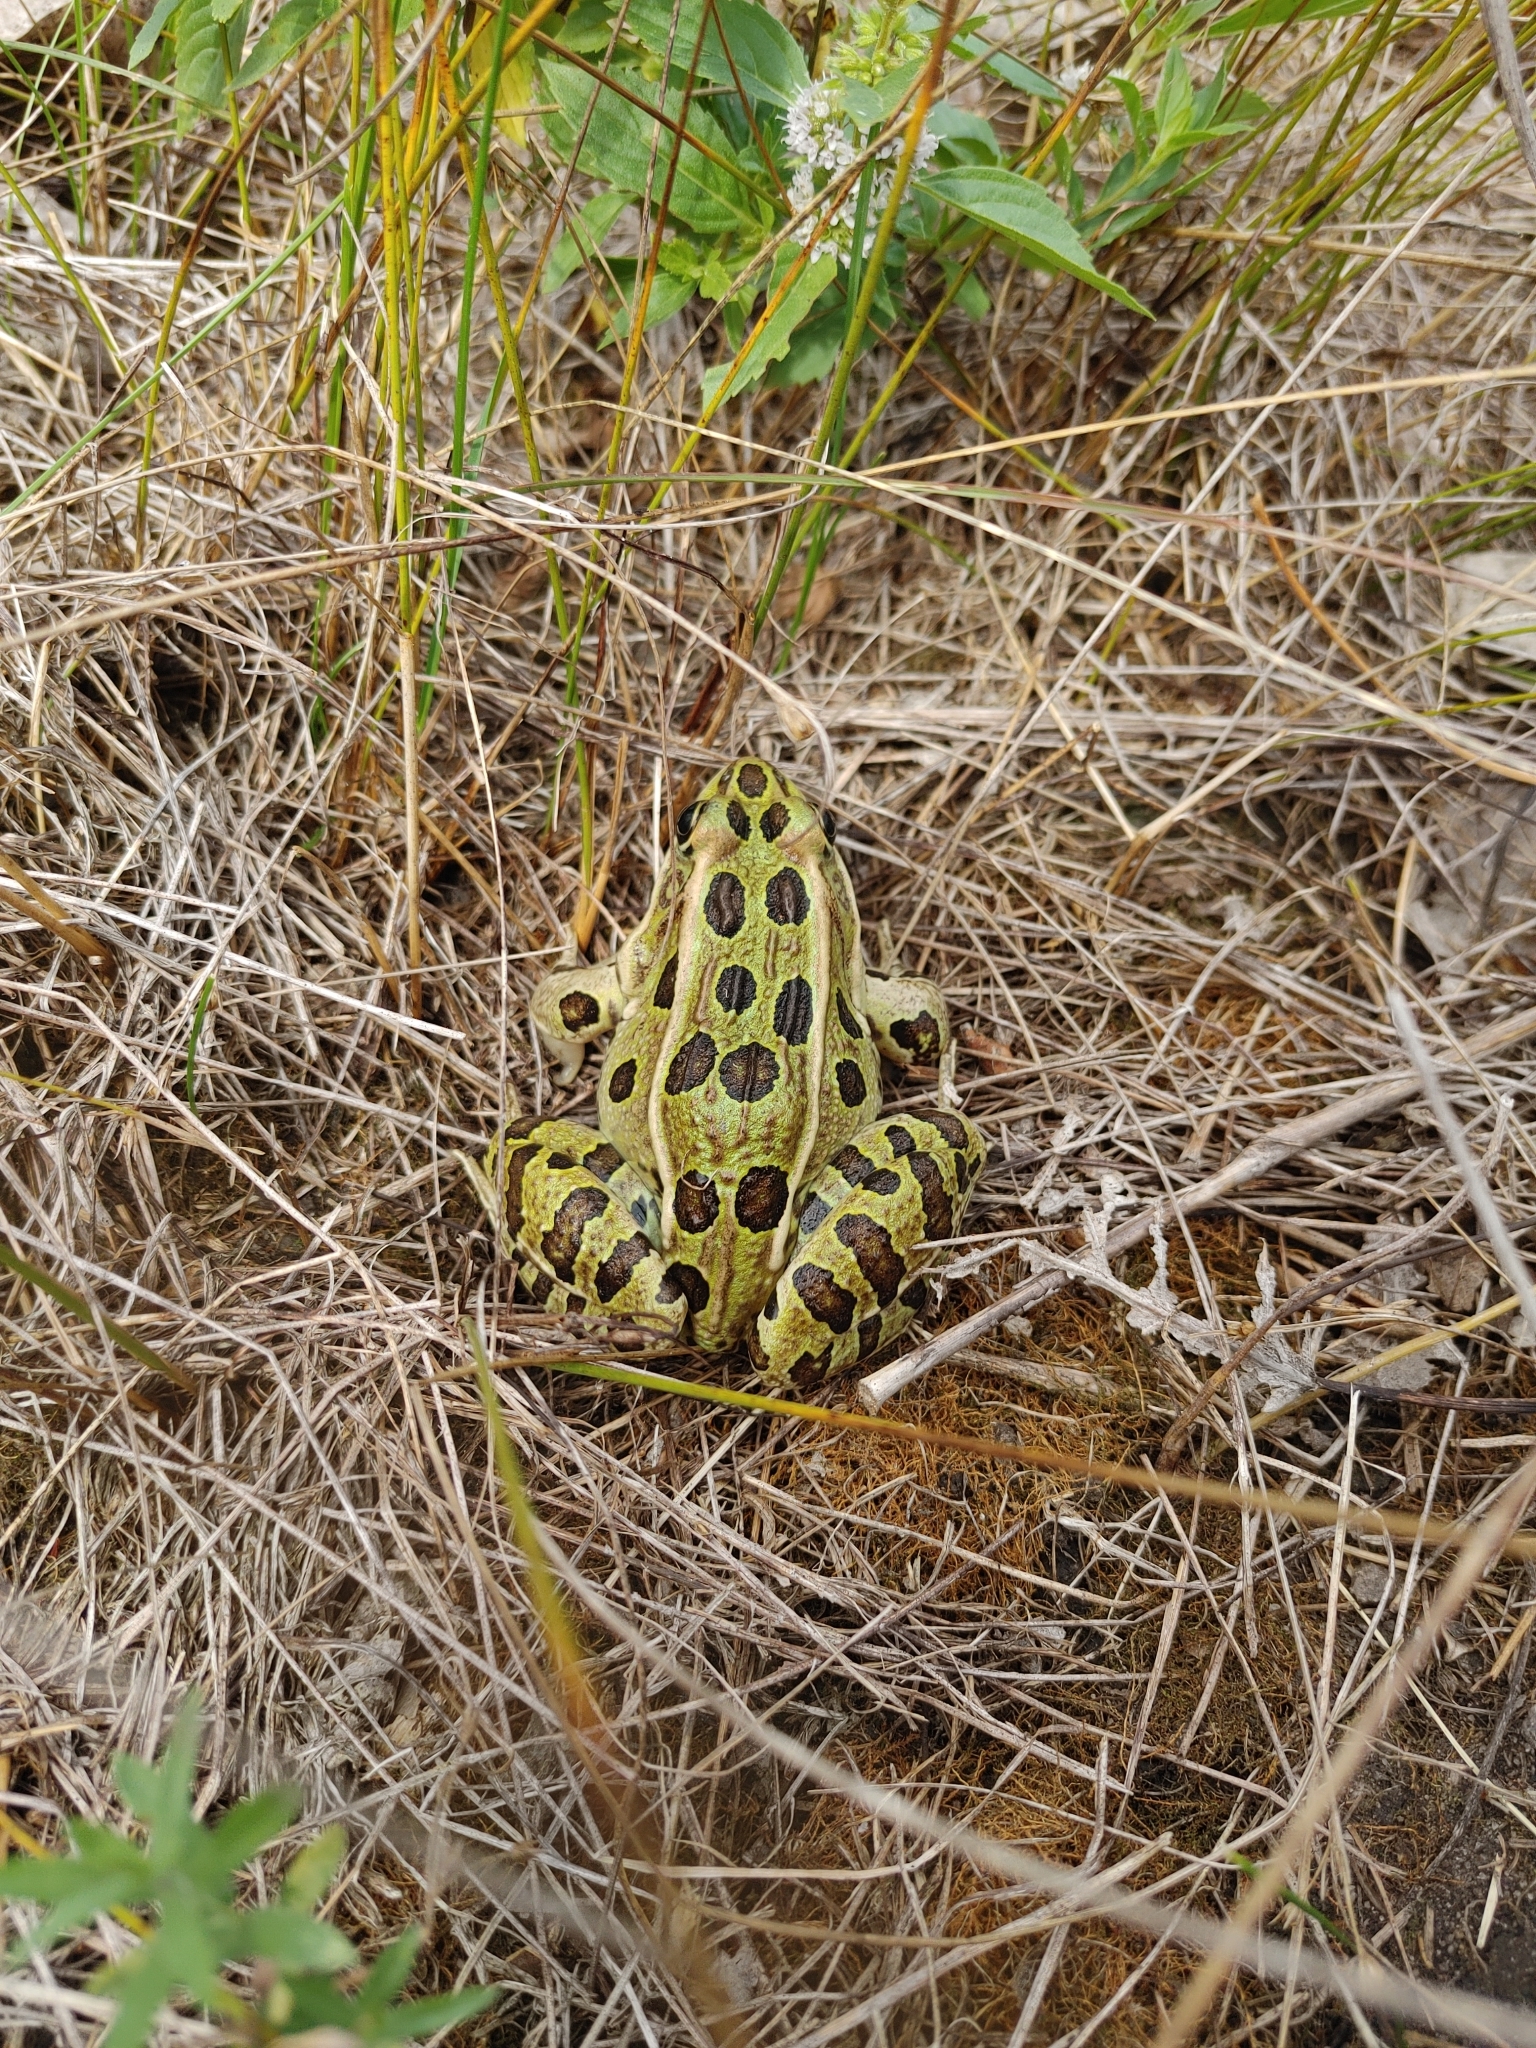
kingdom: Animalia
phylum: Chordata
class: Amphibia
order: Anura
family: Ranidae
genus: Lithobates
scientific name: Lithobates pipiens
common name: Northern leopard frog
